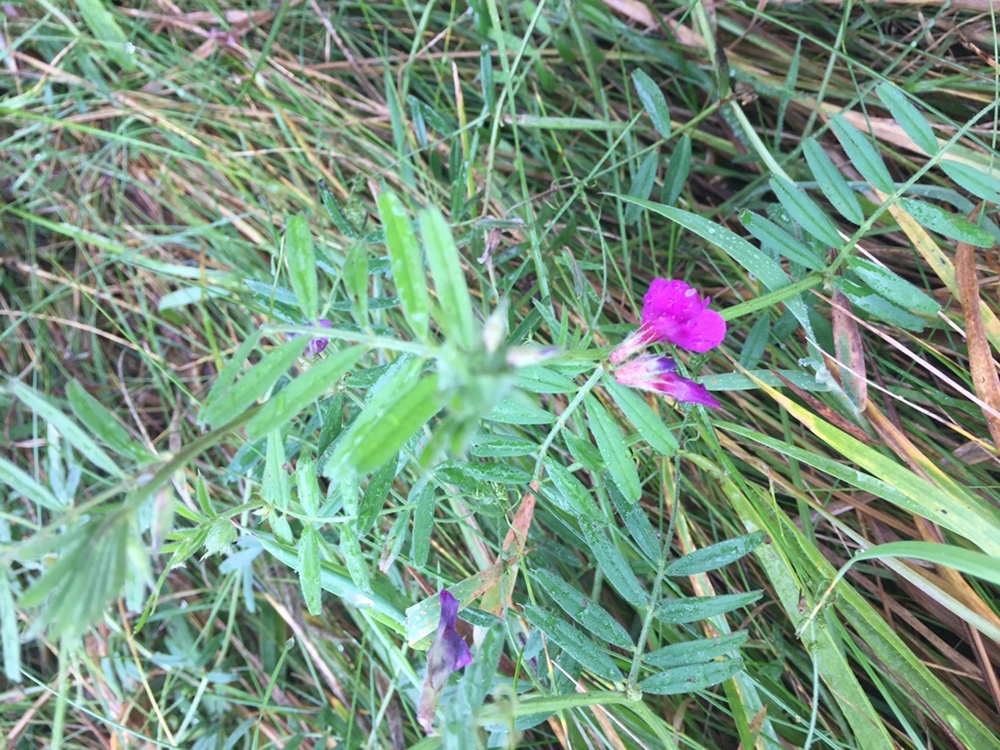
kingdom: Plantae
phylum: Tracheophyta
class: Magnoliopsida
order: Fabales
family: Fabaceae
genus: Vicia
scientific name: Vicia sativa
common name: Garden vetch
